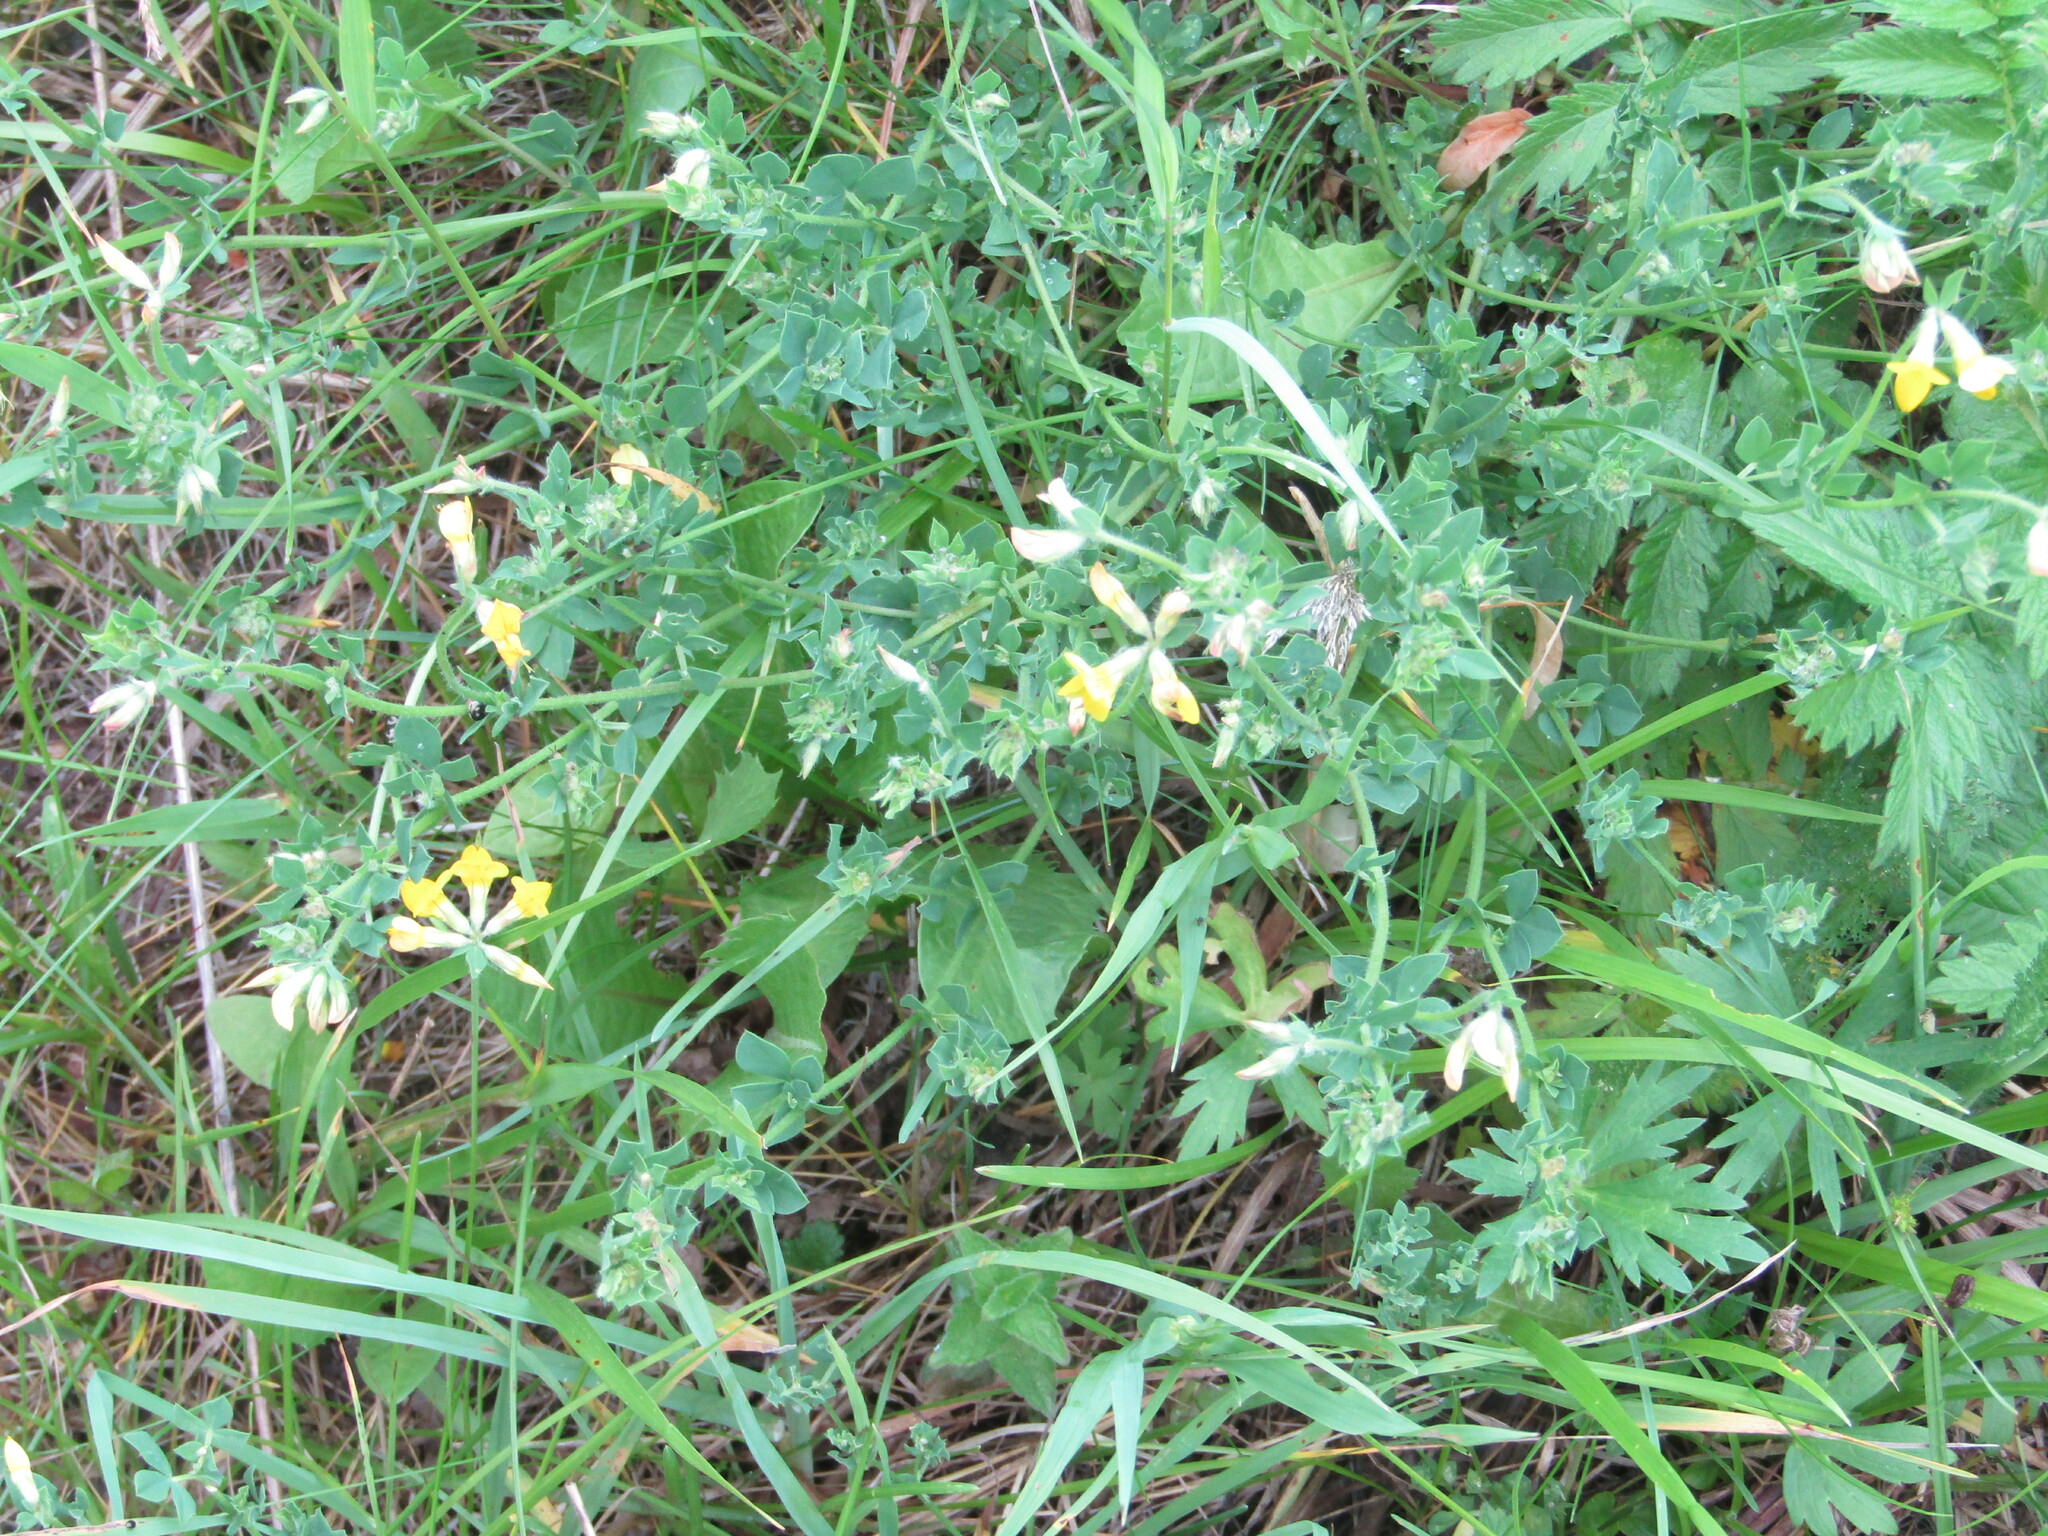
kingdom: Plantae
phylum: Tracheophyta
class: Magnoliopsida
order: Fabales
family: Fabaceae
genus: Lotus
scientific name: Lotus corniculatus
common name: Common bird's-foot-trefoil
